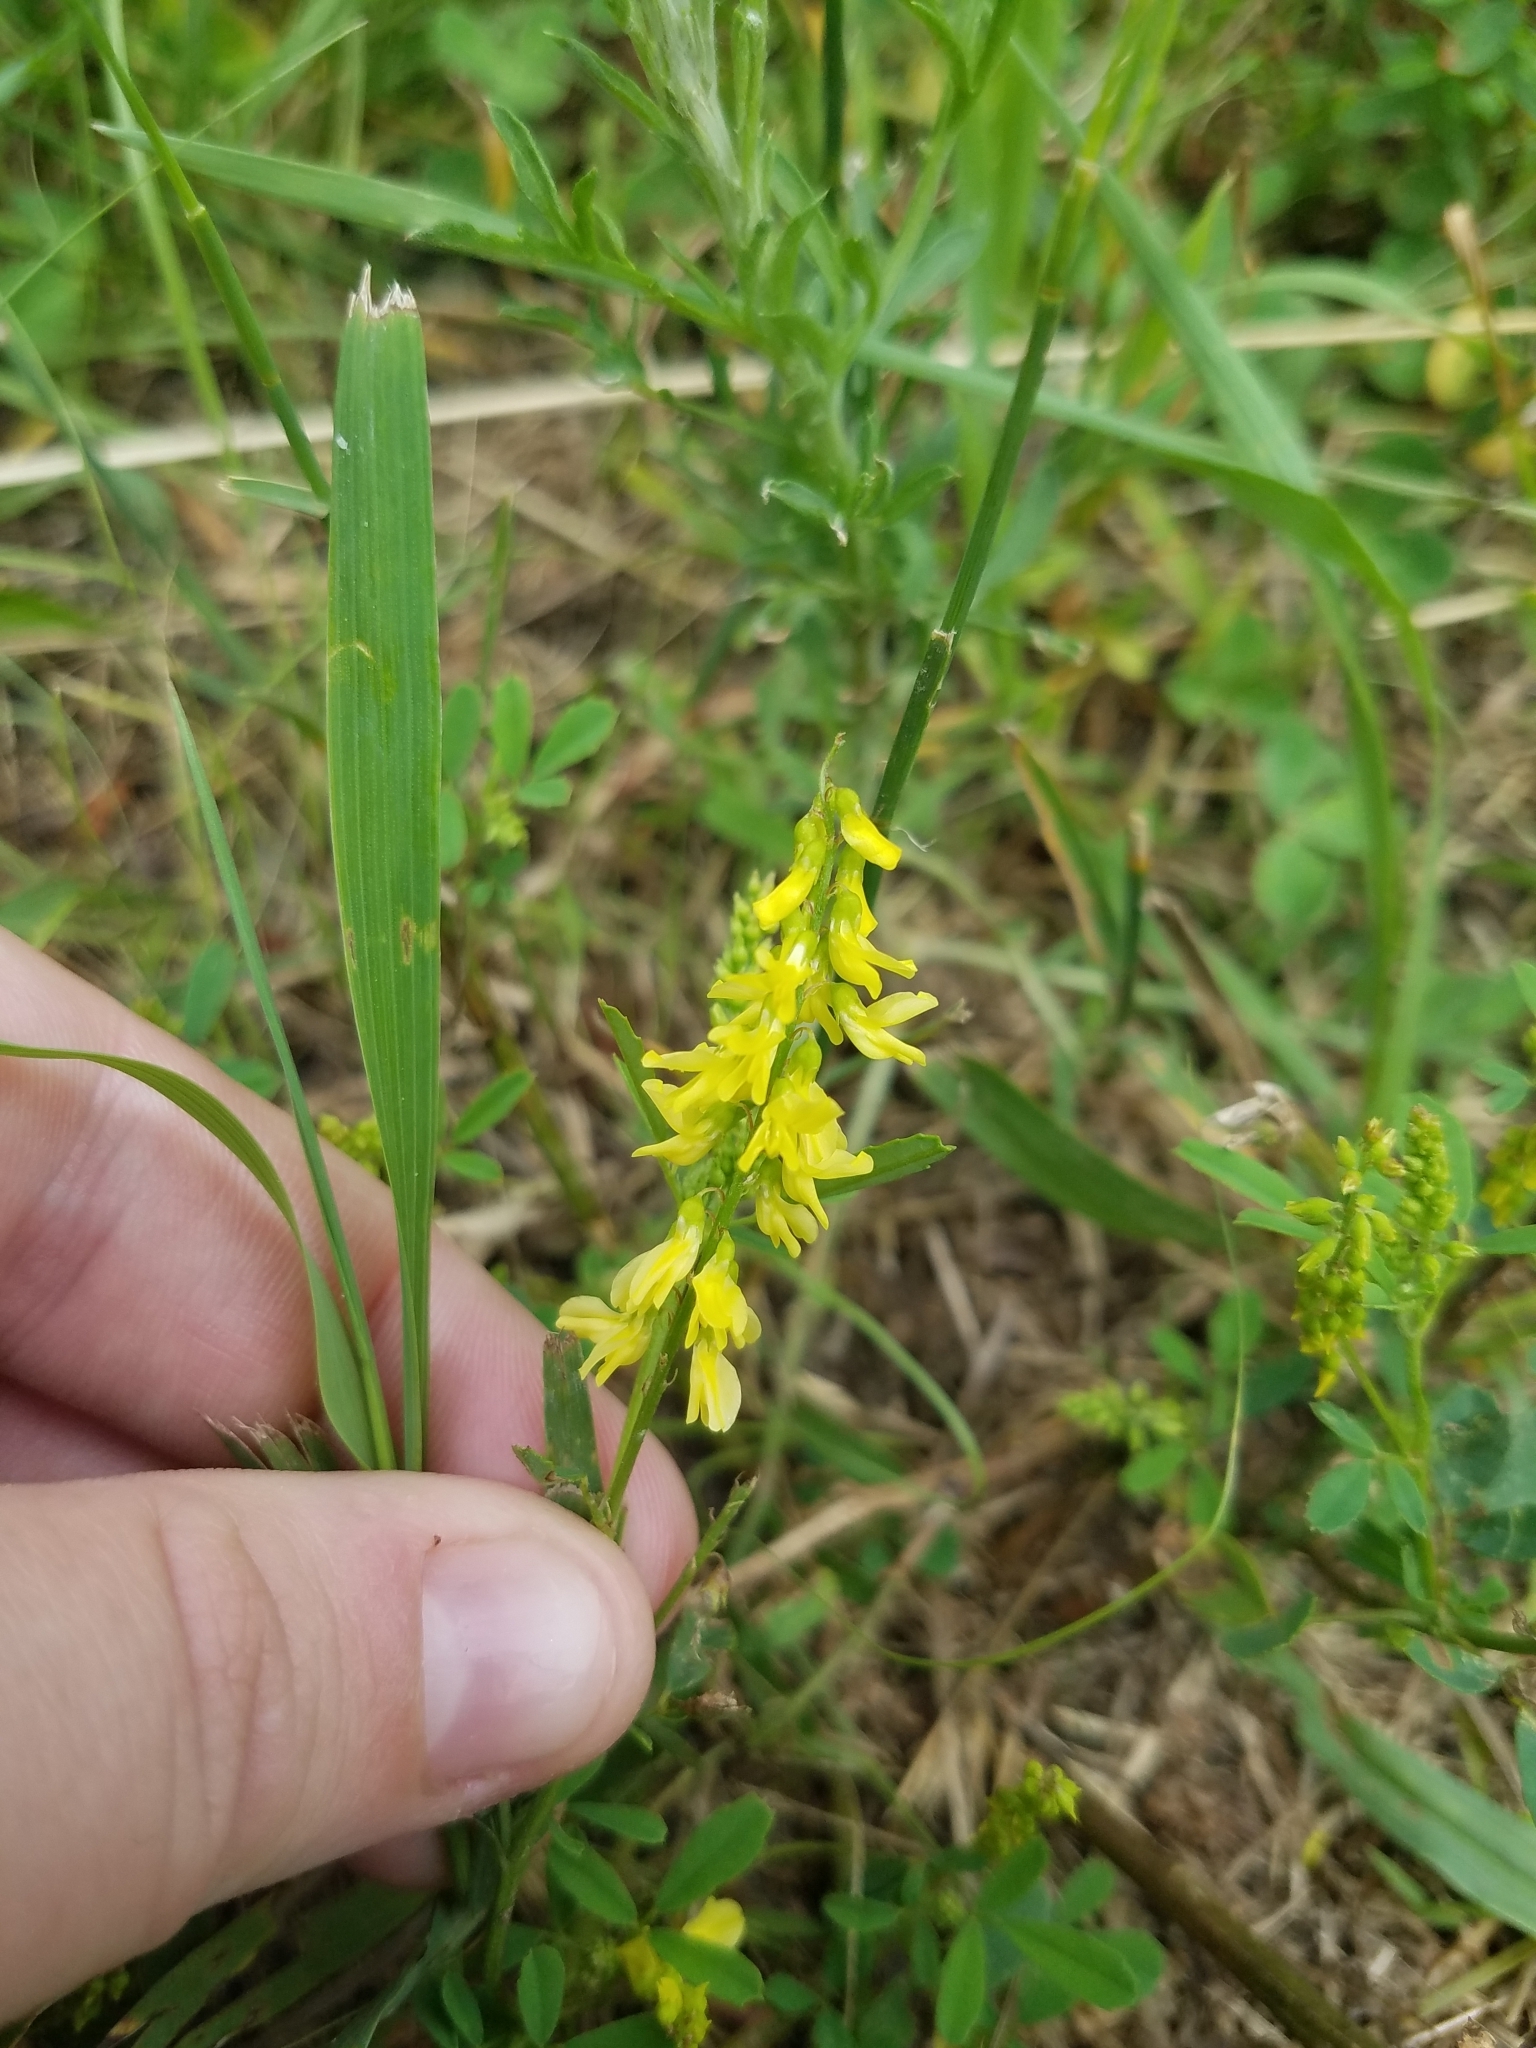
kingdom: Plantae
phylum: Tracheophyta
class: Magnoliopsida
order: Fabales
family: Fabaceae
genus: Melilotus
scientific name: Melilotus officinalis
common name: Sweetclover
